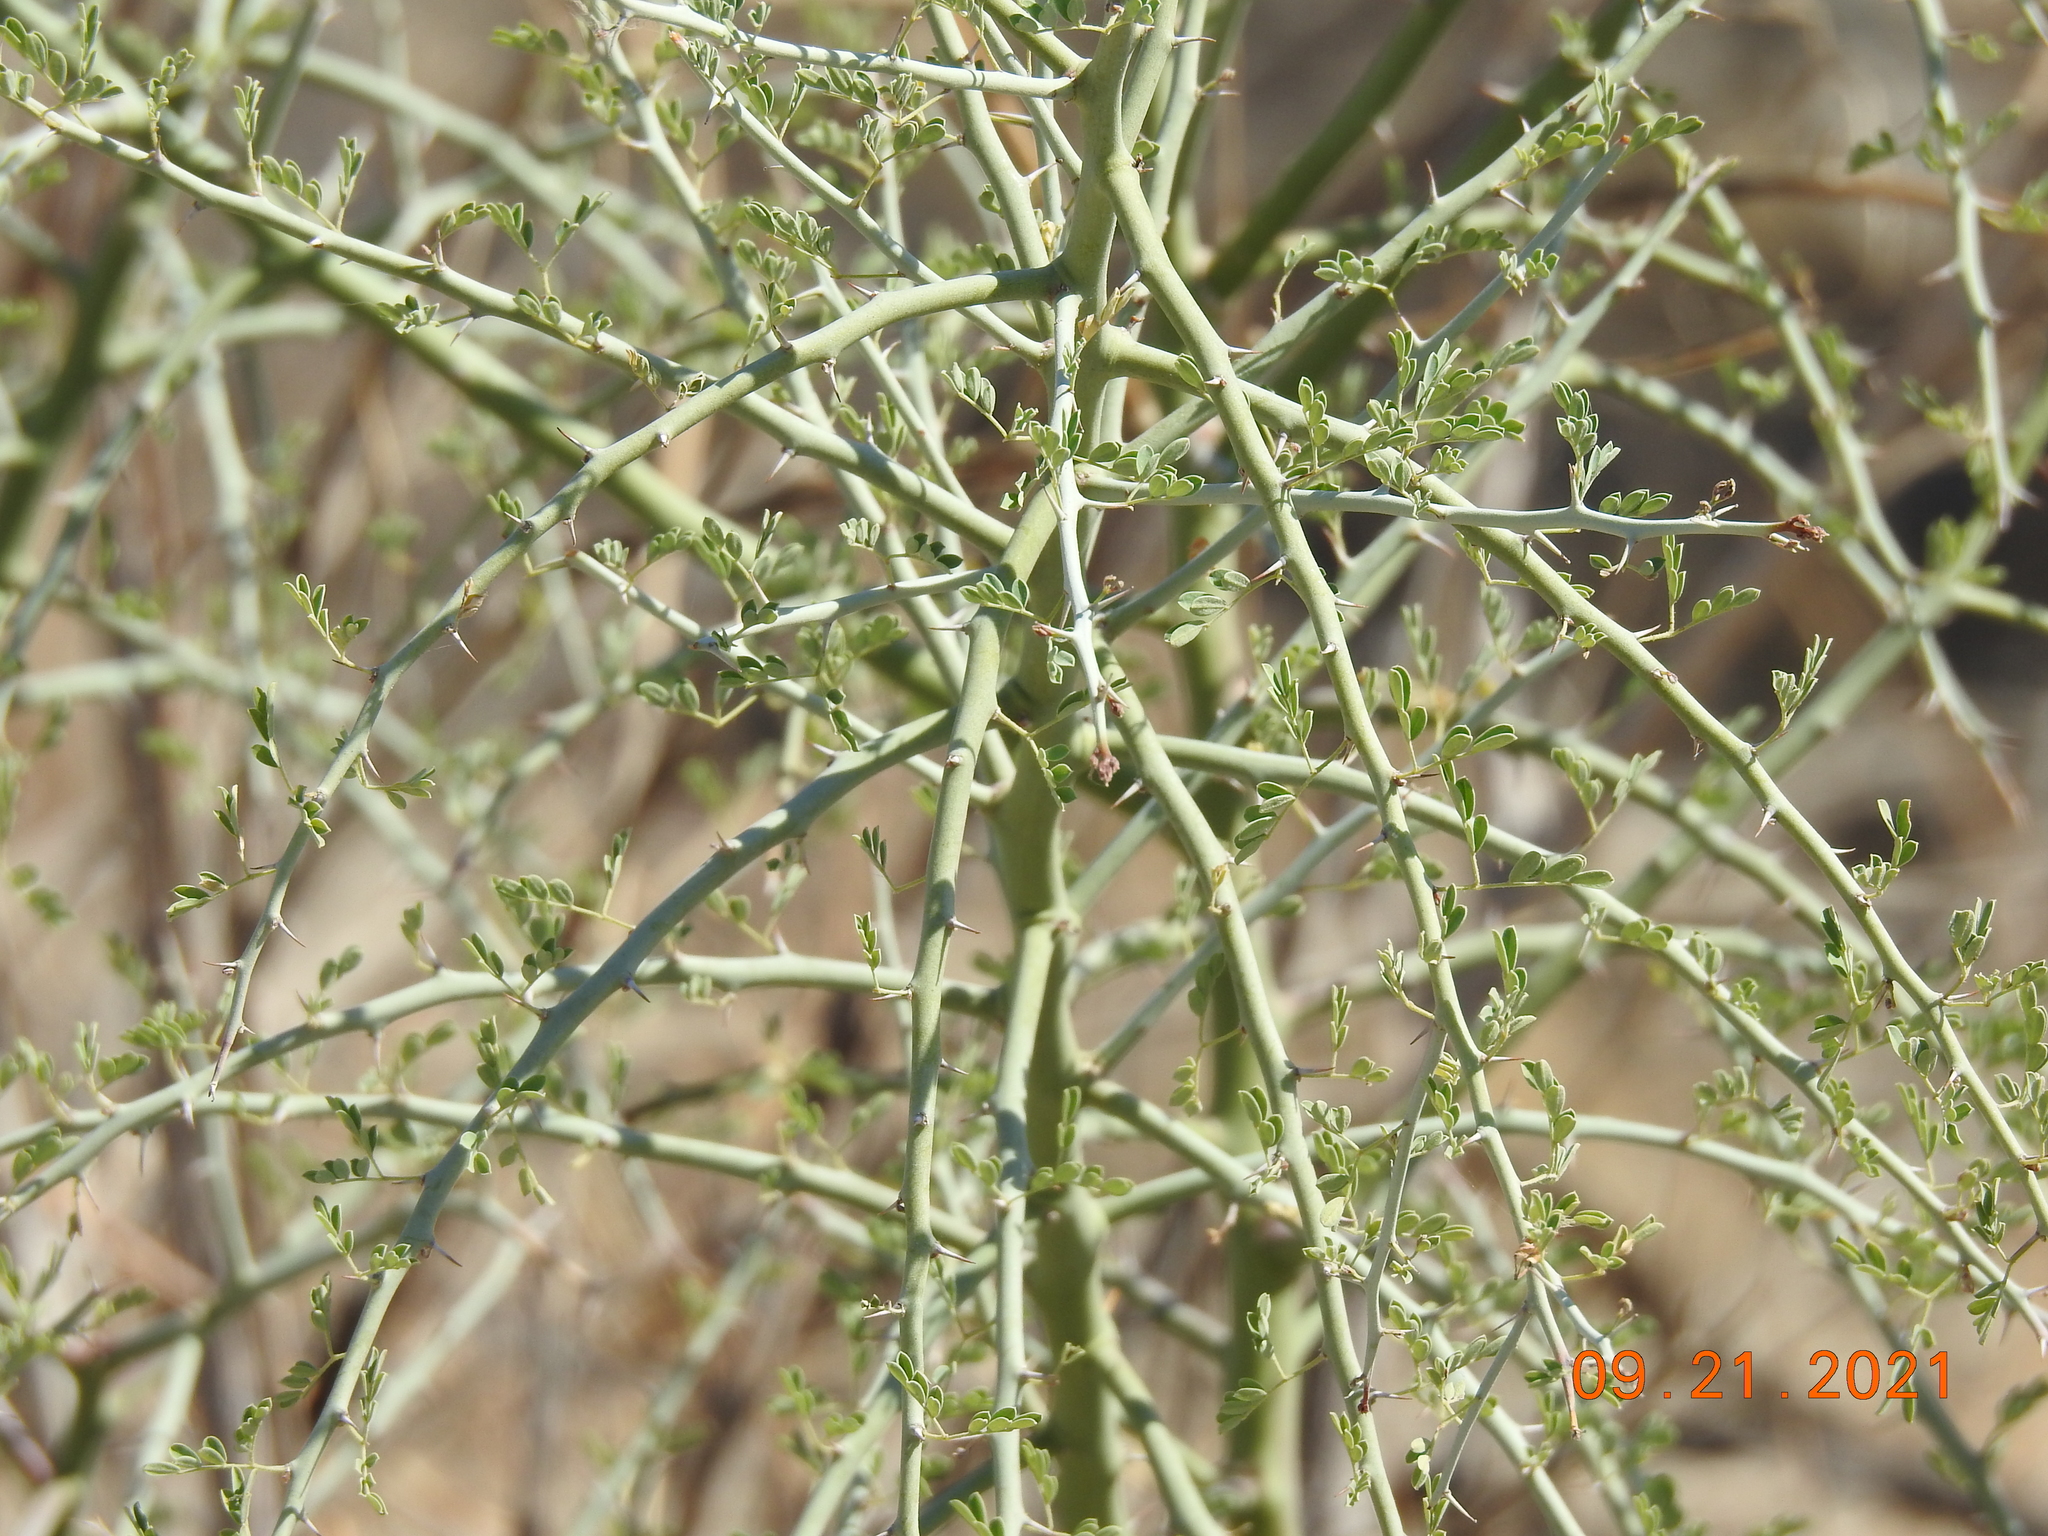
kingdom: Plantae
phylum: Tracheophyta
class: Magnoliopsida
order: Fabales
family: Fabaceae
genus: Parkinsonia
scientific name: Parkinsonia florida
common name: Blue paloverde
